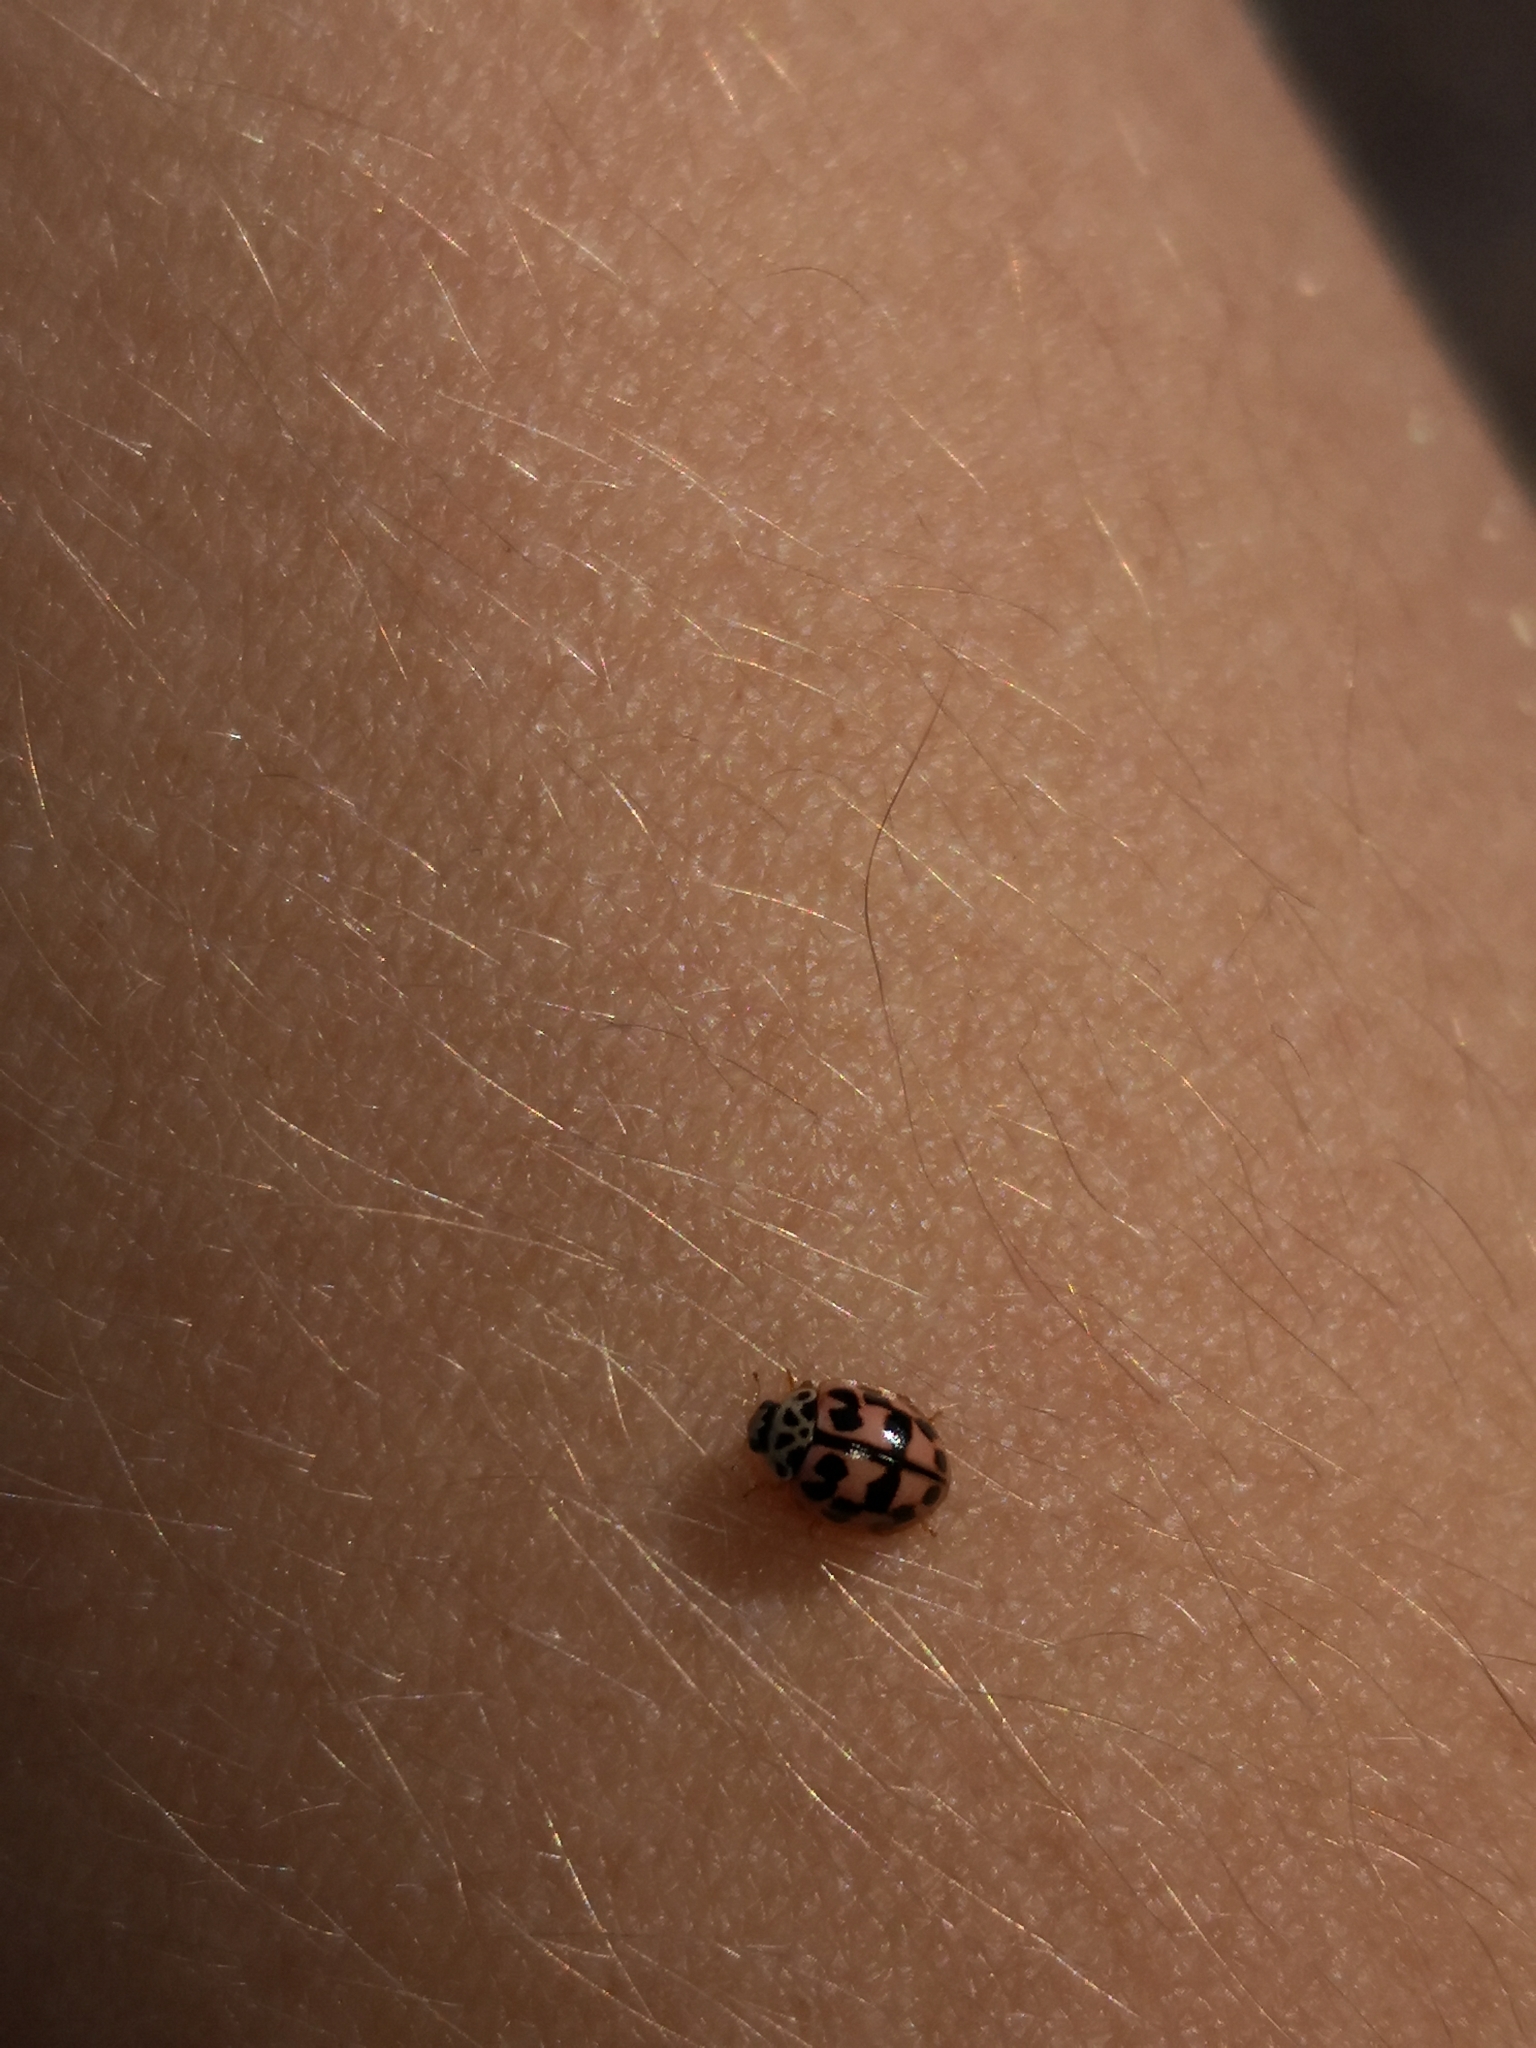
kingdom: Animalia
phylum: Arthropoda
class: Insecta
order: Coleoptera
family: Coccinellidae
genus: Oenopia
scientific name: Oenopia conglobata
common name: Ladybird beetle
